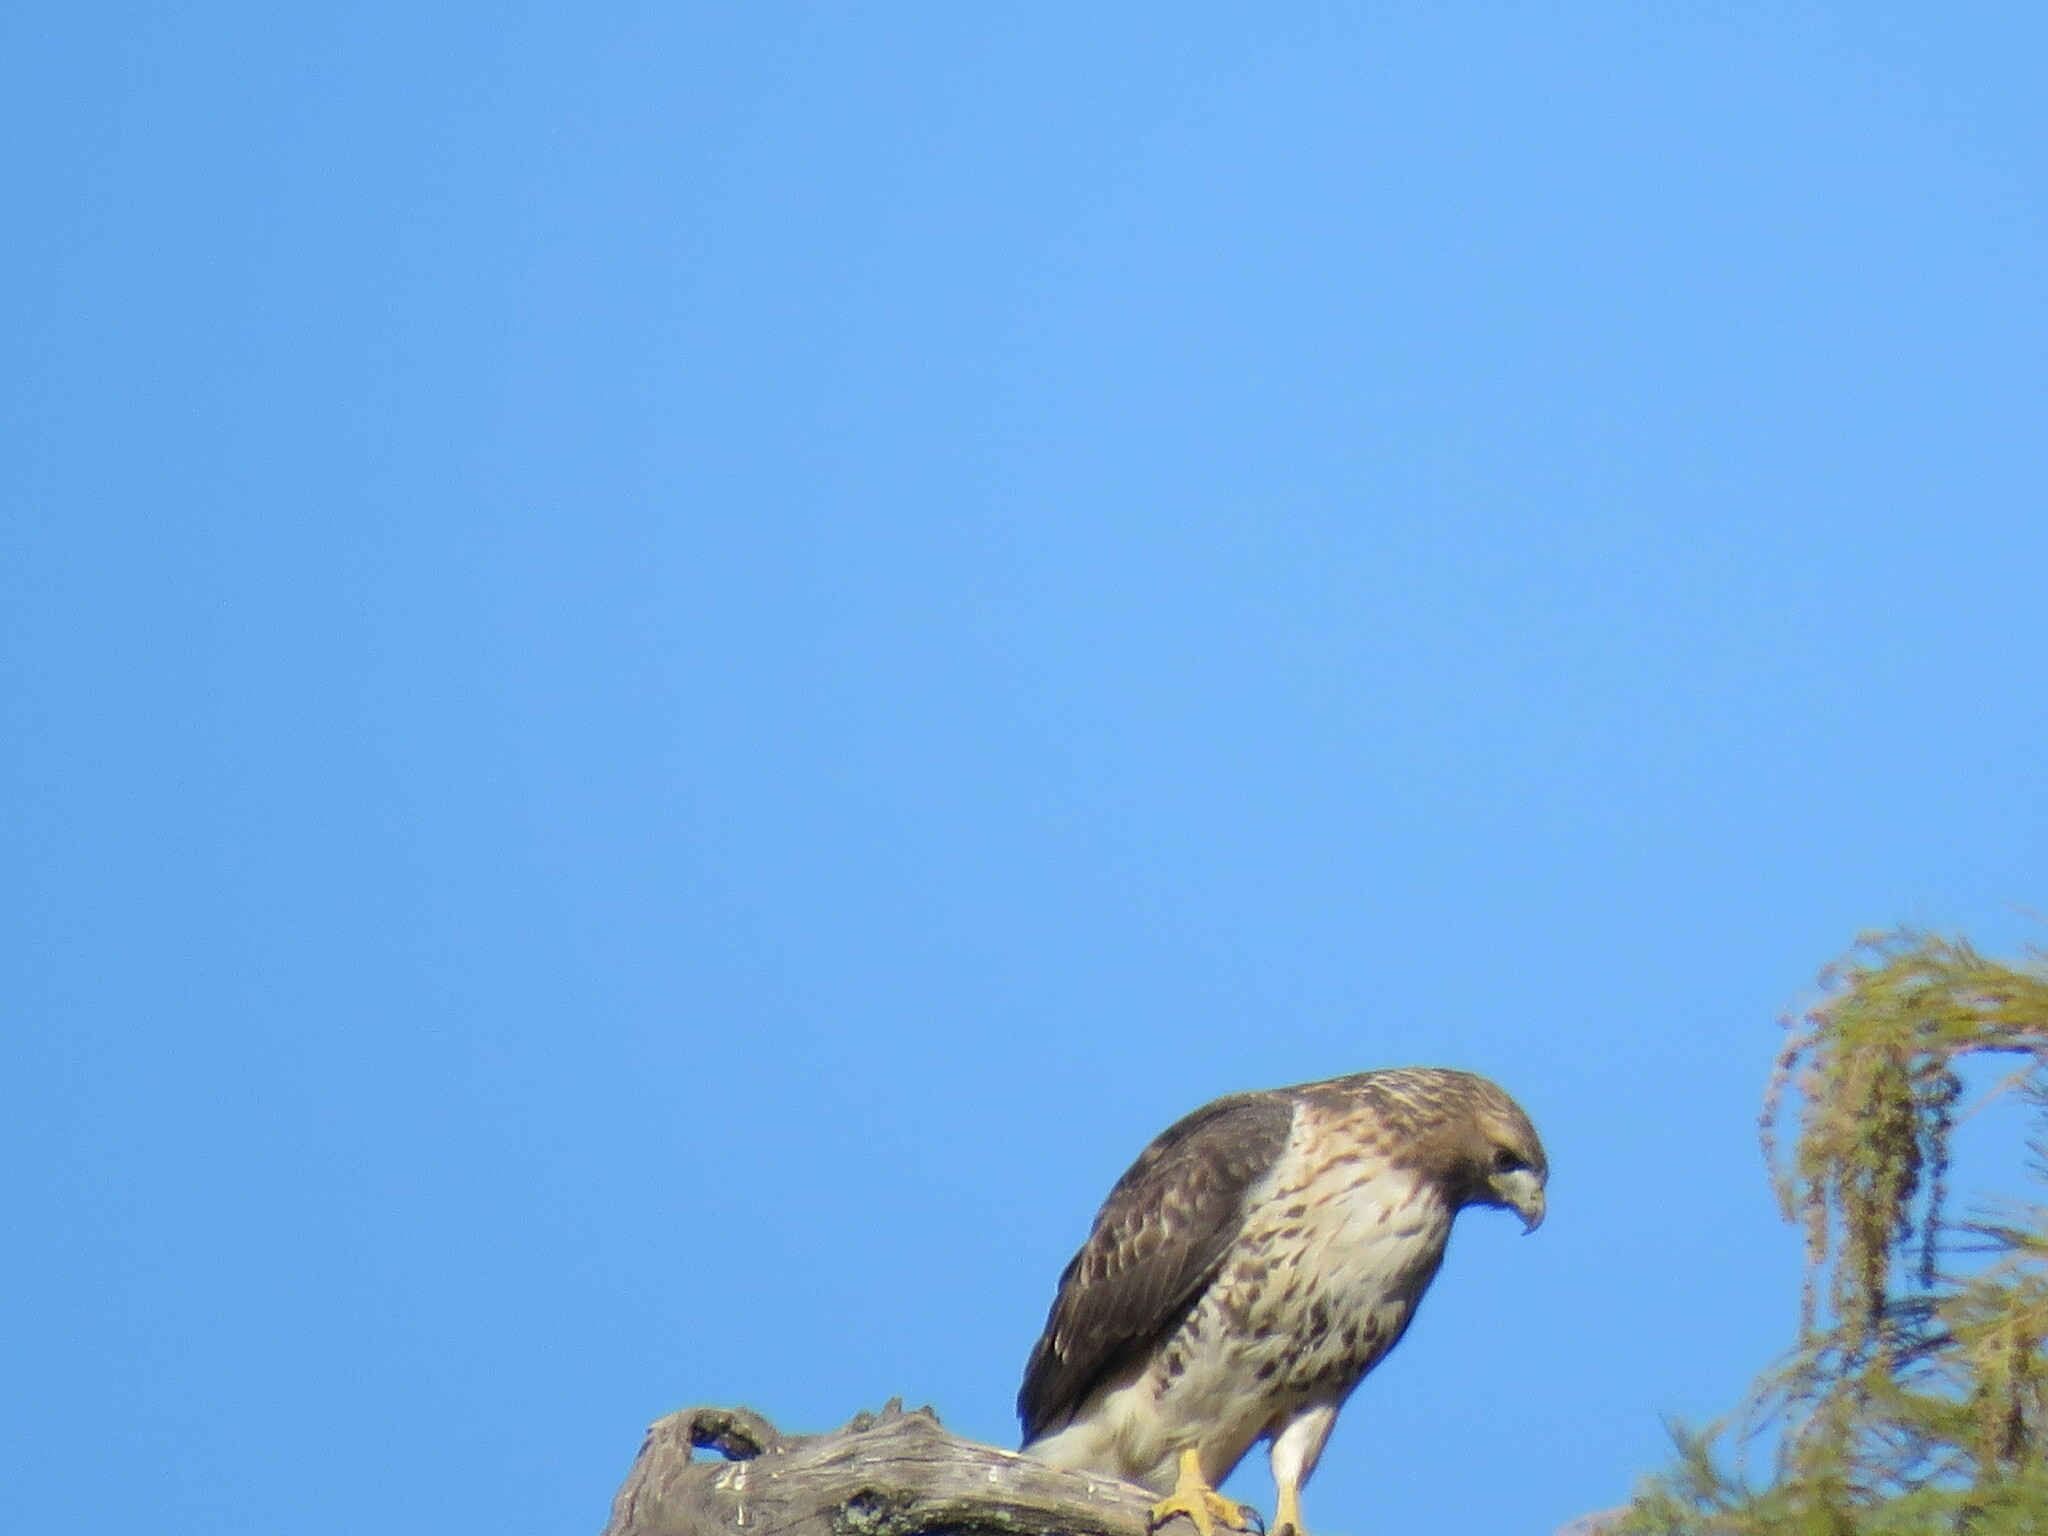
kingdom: Animalia
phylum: Chordata
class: Aves
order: Accipitriformes
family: Accipitridae
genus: Buteo
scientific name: Buteo jamaicensis
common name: Red-tailed hawk
